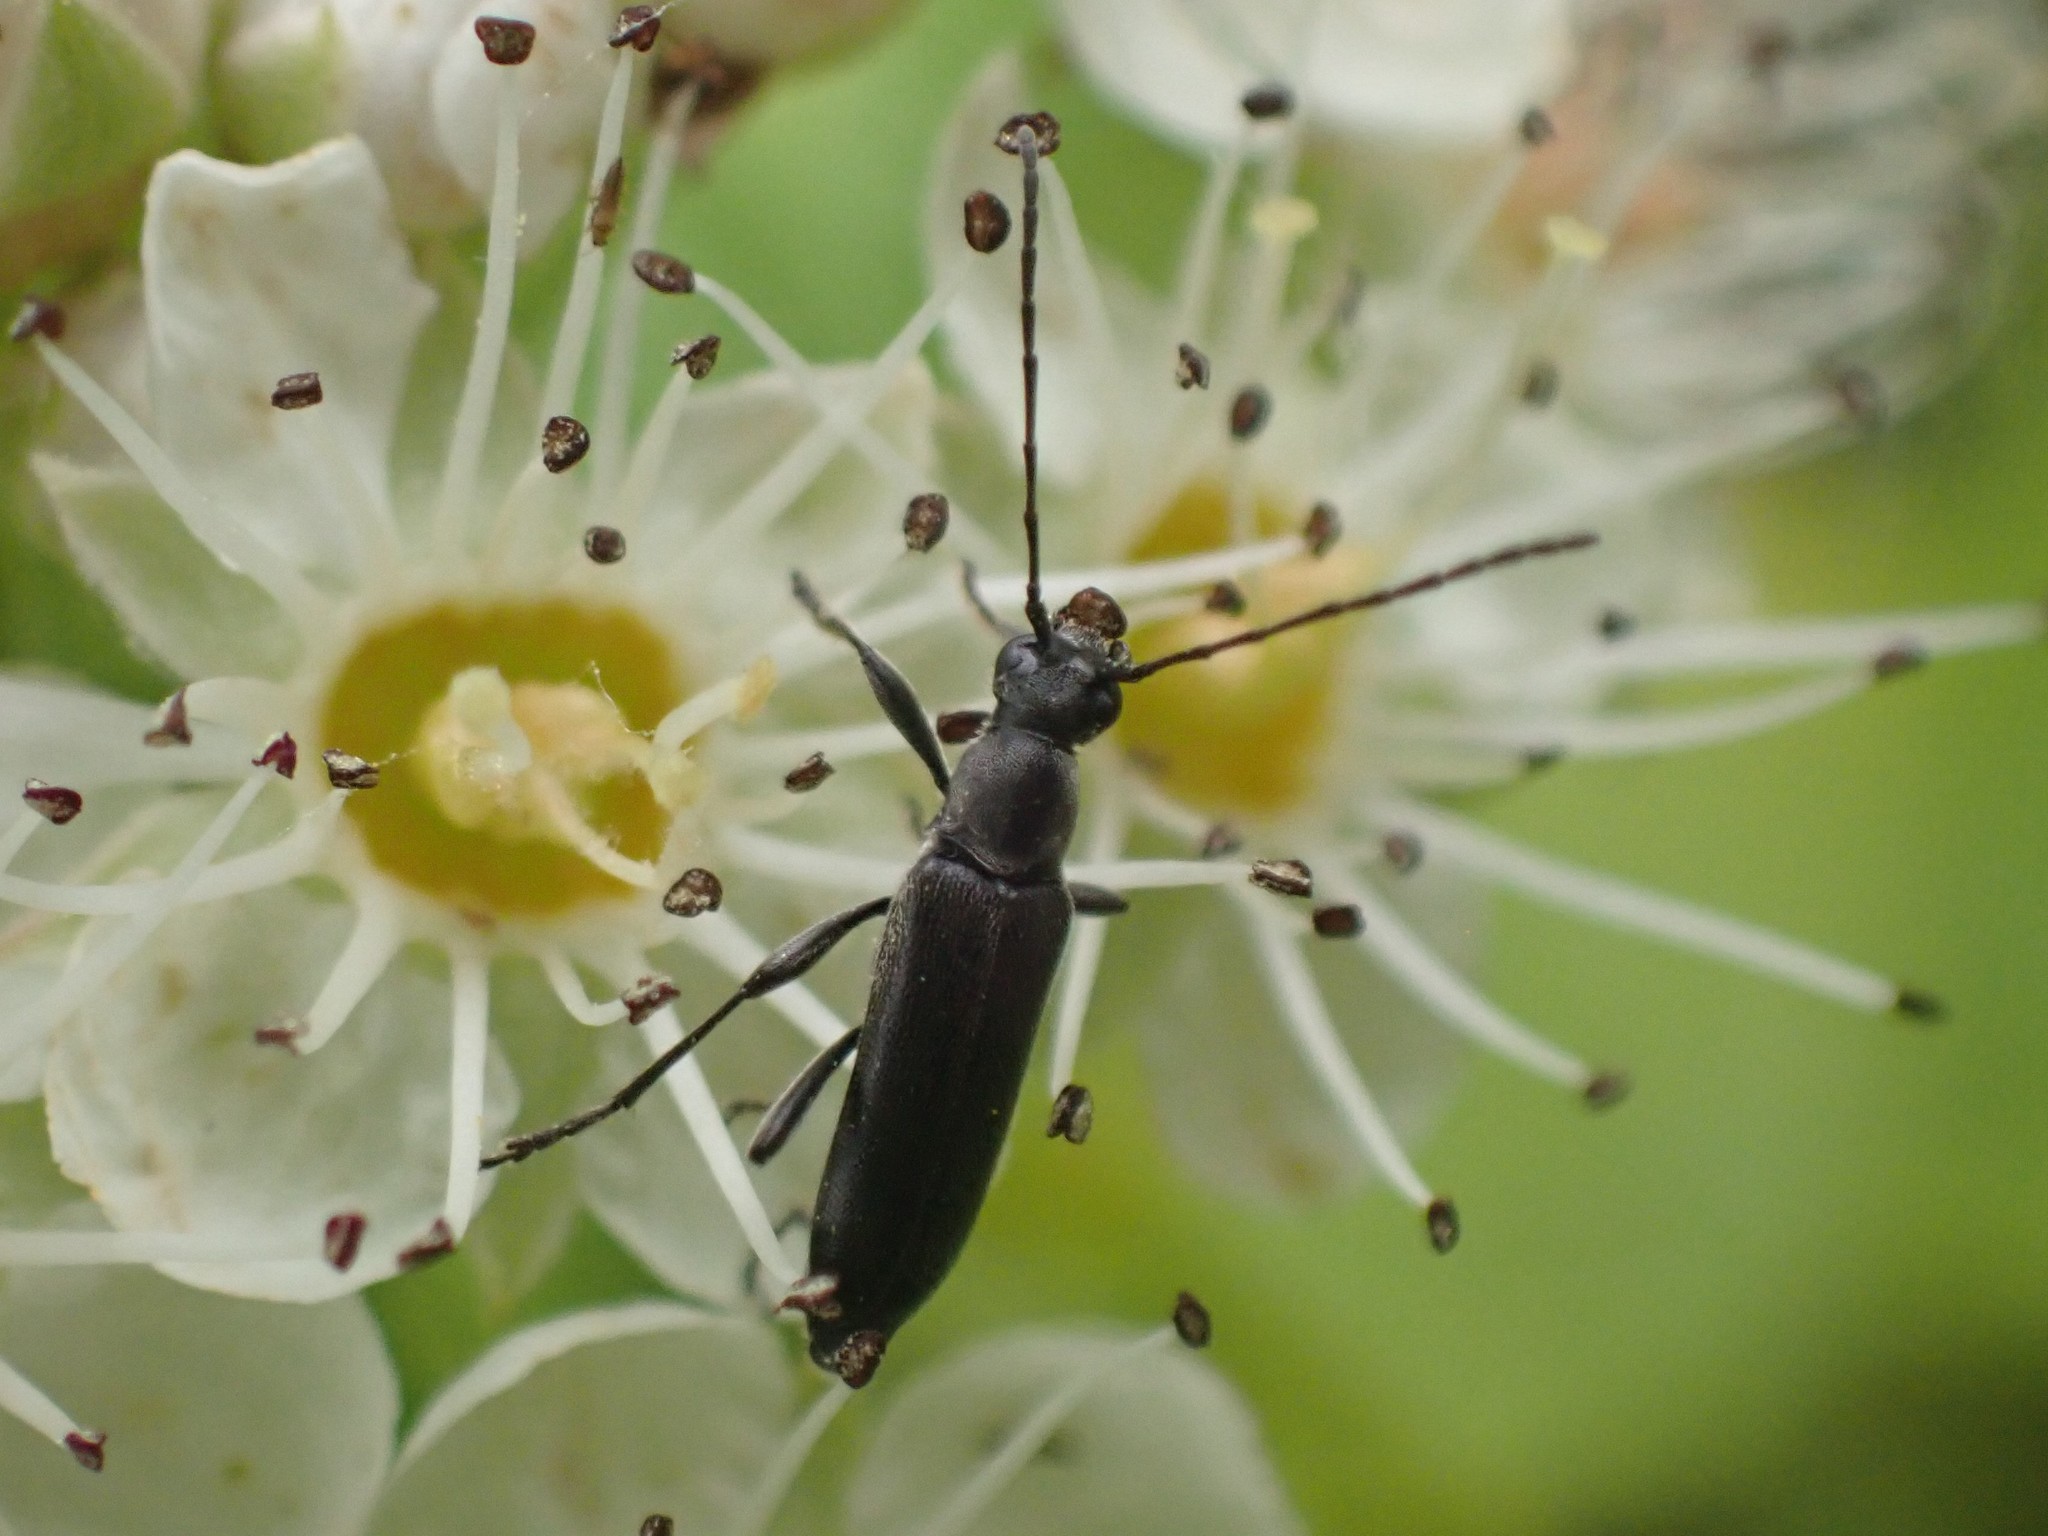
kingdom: Animalia
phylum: Arthropoda
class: Insecta
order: Coleoptera
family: Cerambycidae
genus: Grammoptera
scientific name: Grammoptera subargentata
